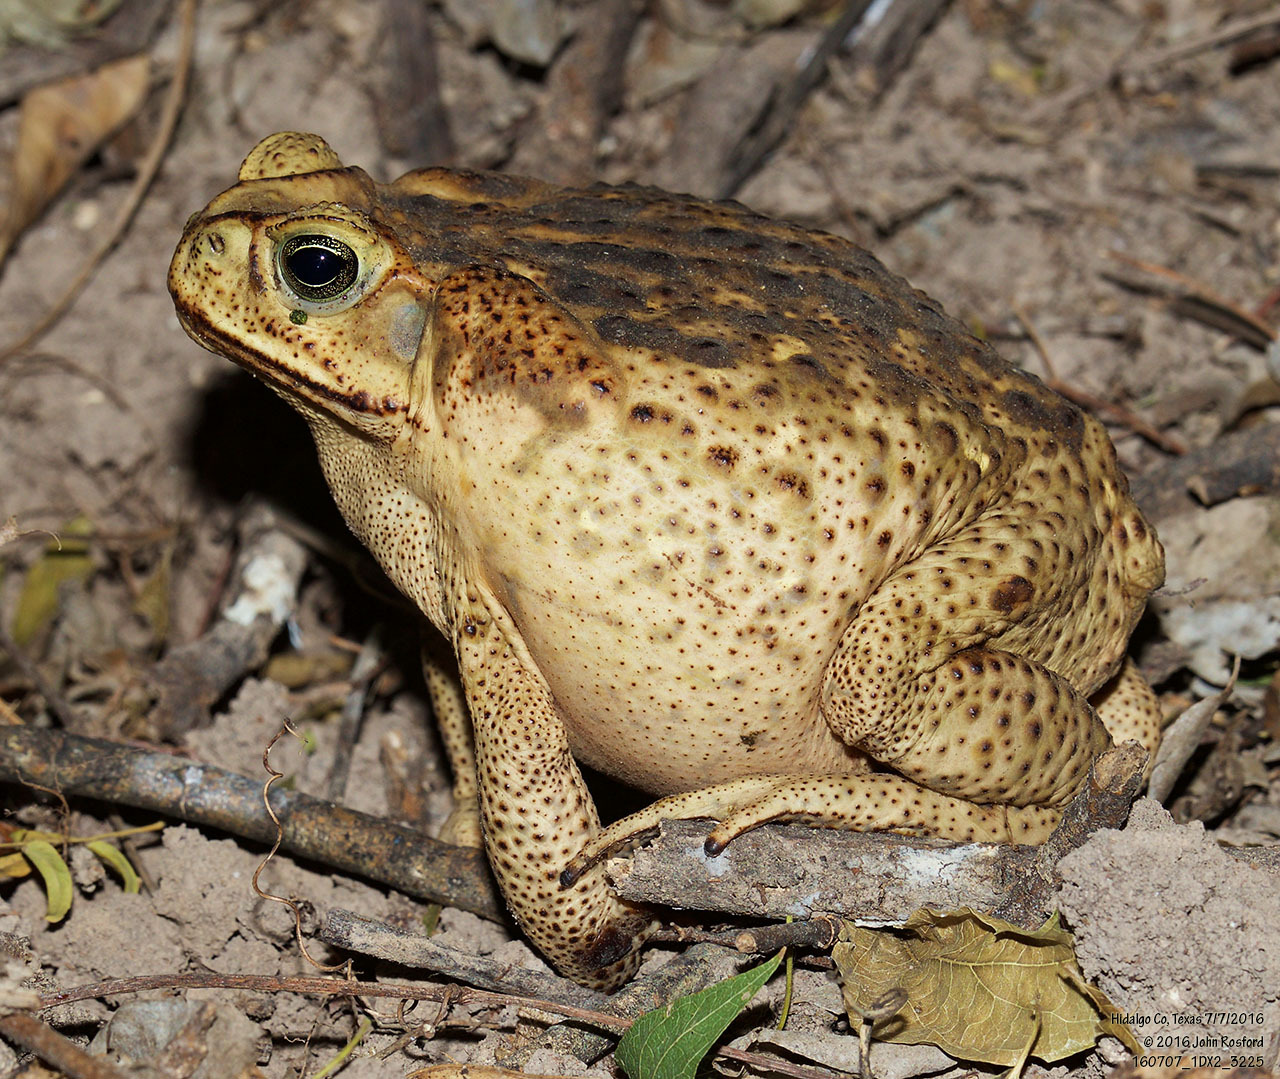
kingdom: Animalia
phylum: Chordata
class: Amphibia
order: Anura
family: Bufonidae
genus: Rhinella
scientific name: Rhinella horribilis
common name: Mesoamerican cane toad
